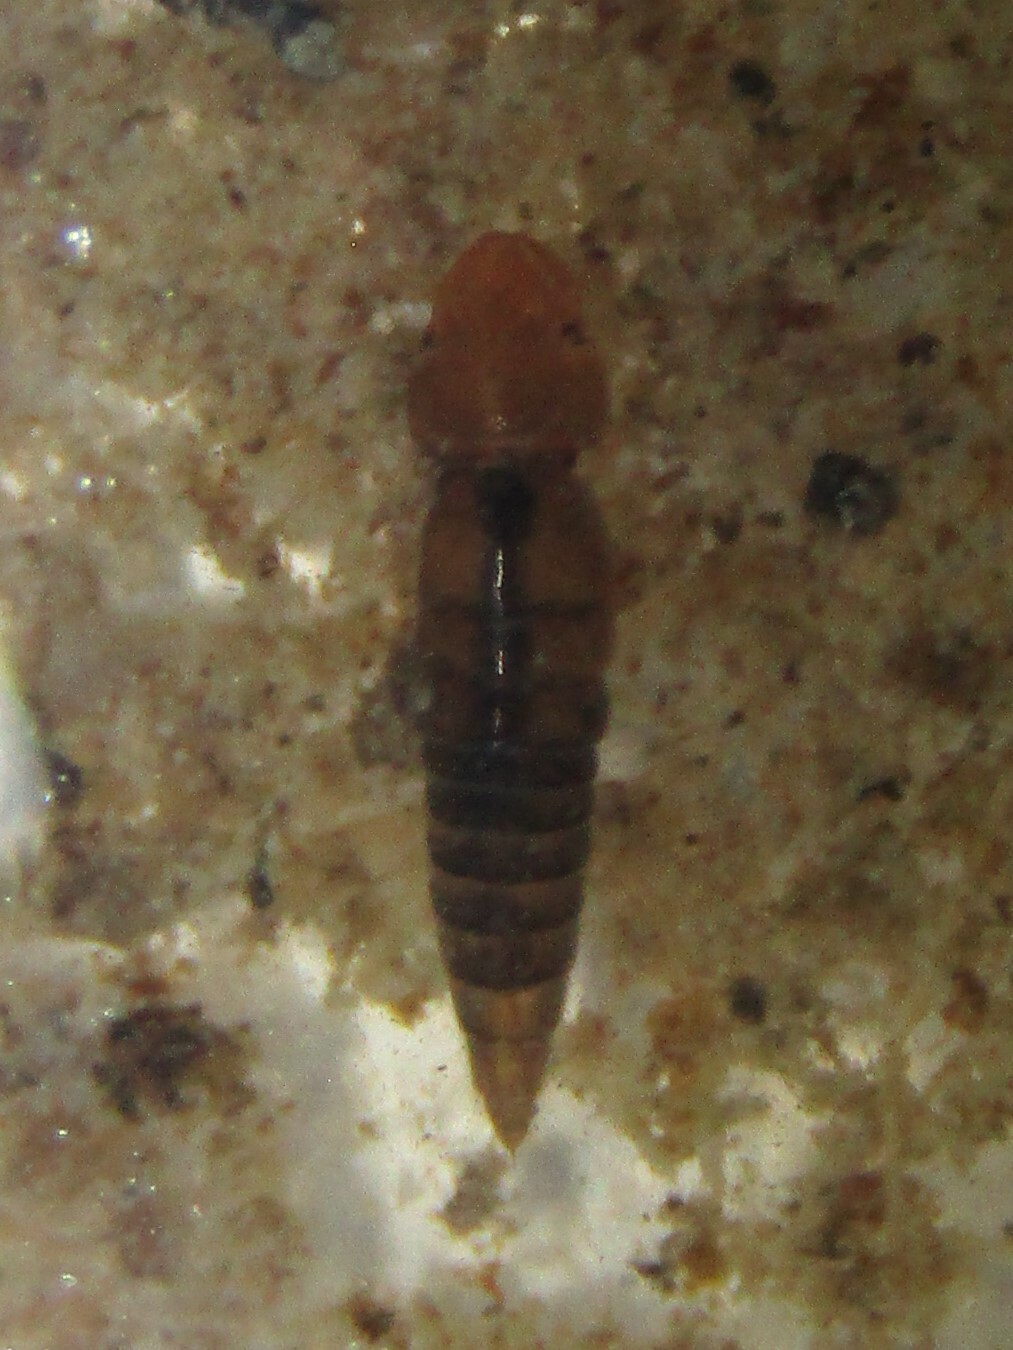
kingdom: Animalia
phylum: Arthropoda
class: Insecta
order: Coleoptera
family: Dytiscidae
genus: Celina
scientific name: Celina
